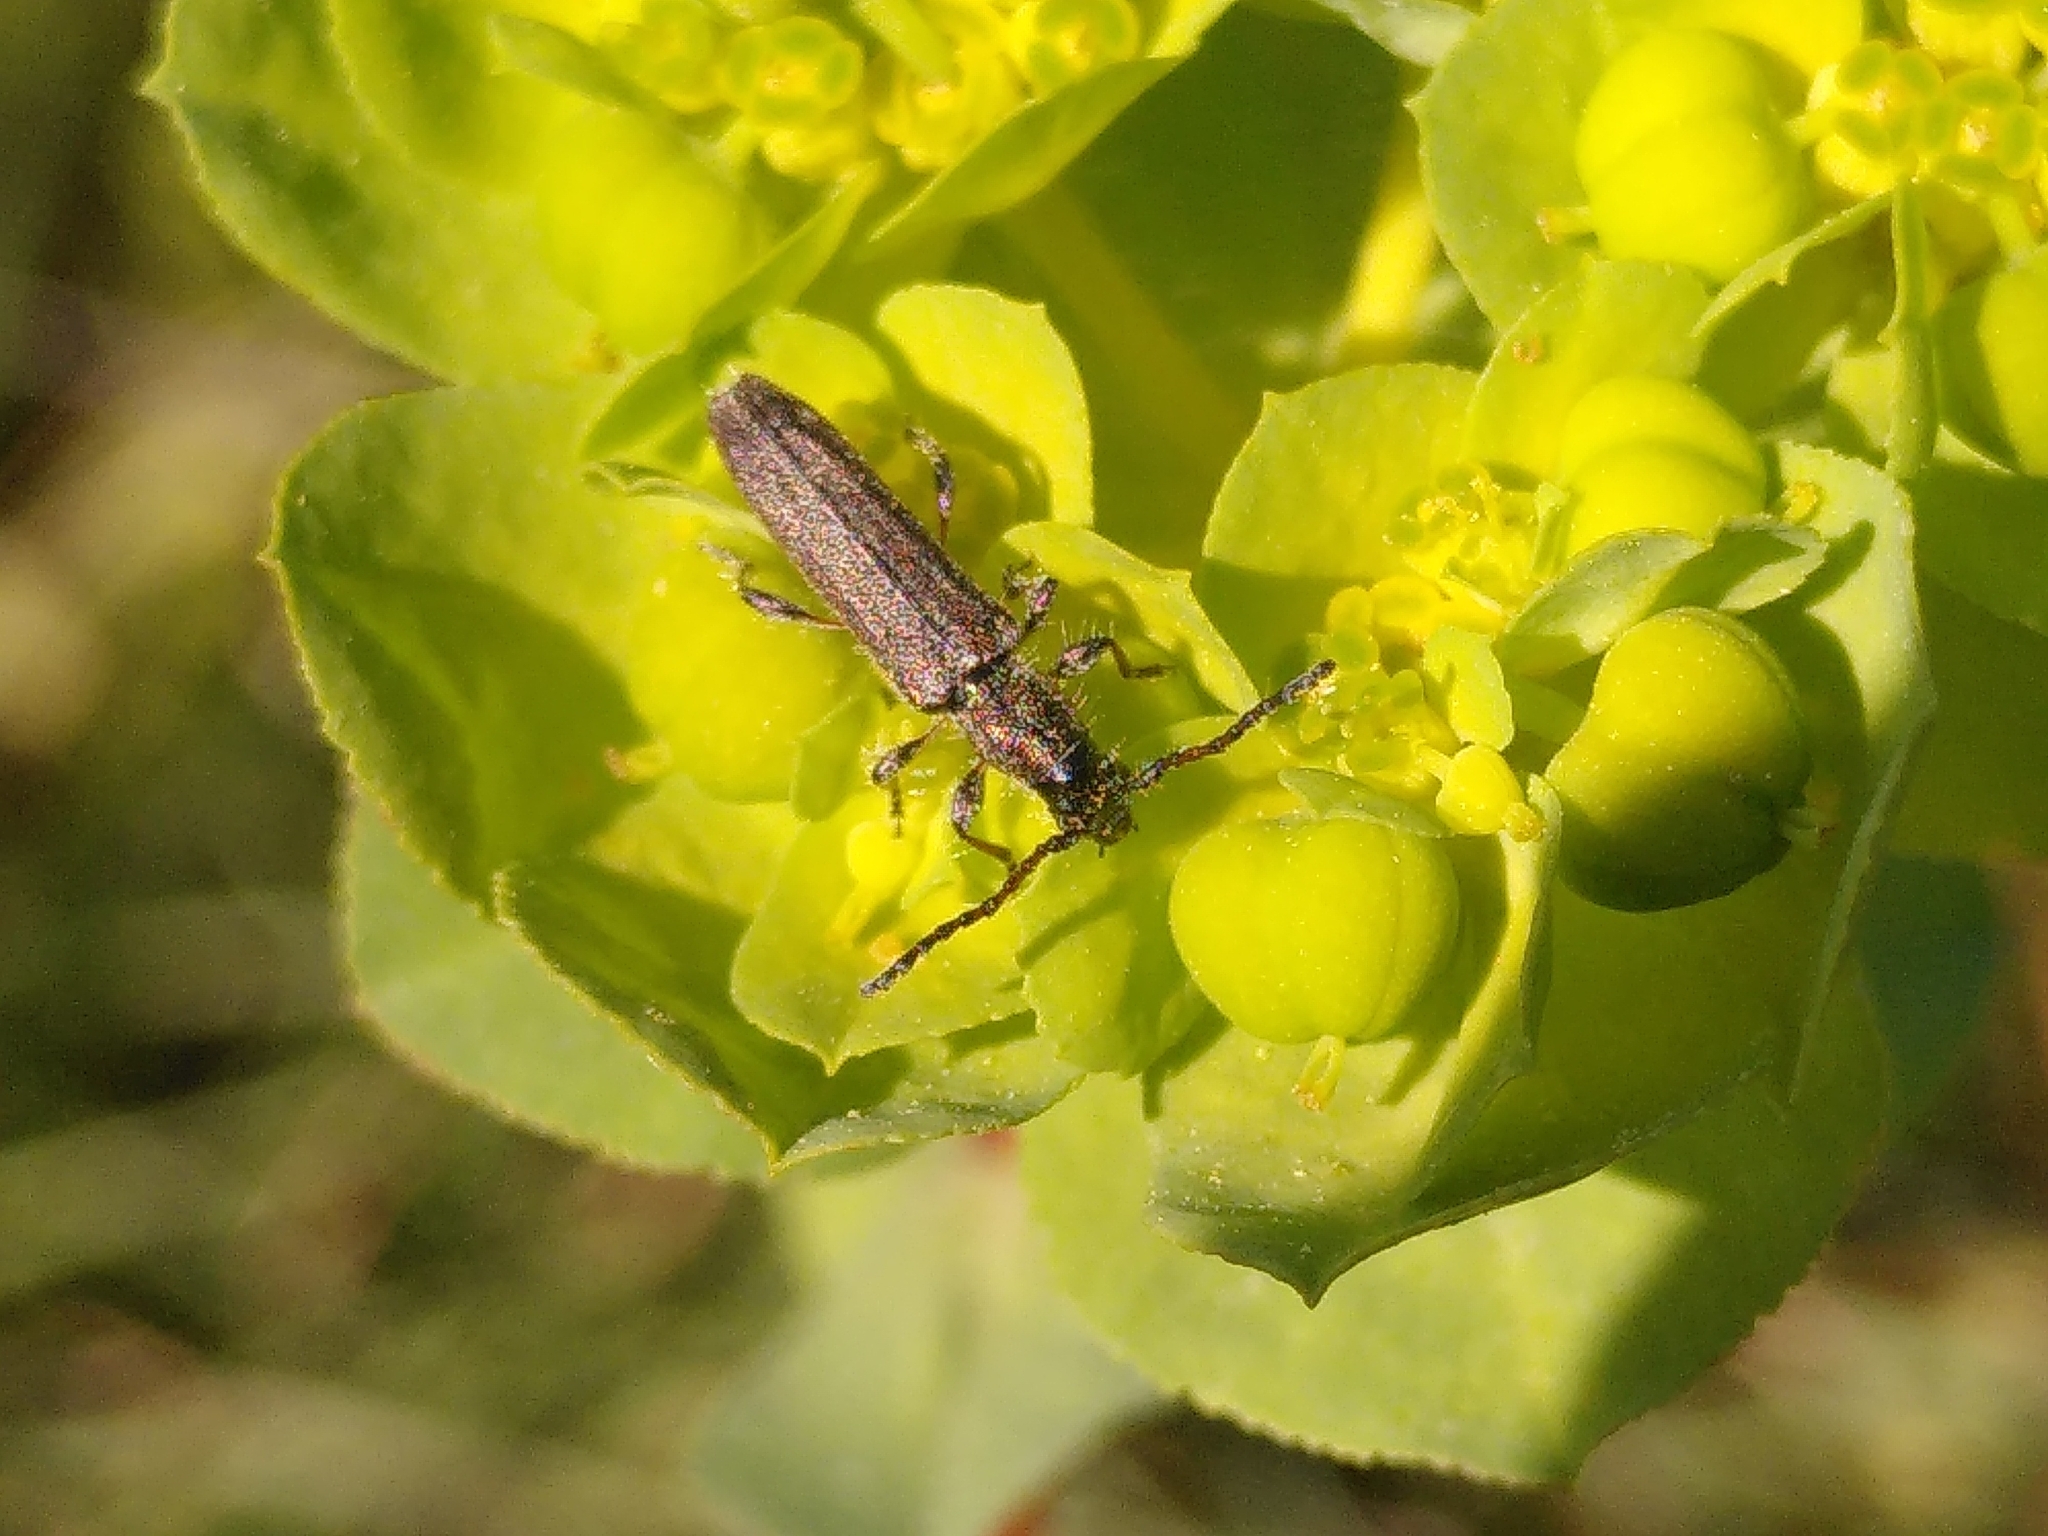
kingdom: Animalia
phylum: Arthropoda
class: Insecta
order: Coleoptera
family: Cerambycidae
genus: Deilus
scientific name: Deilus fugax
